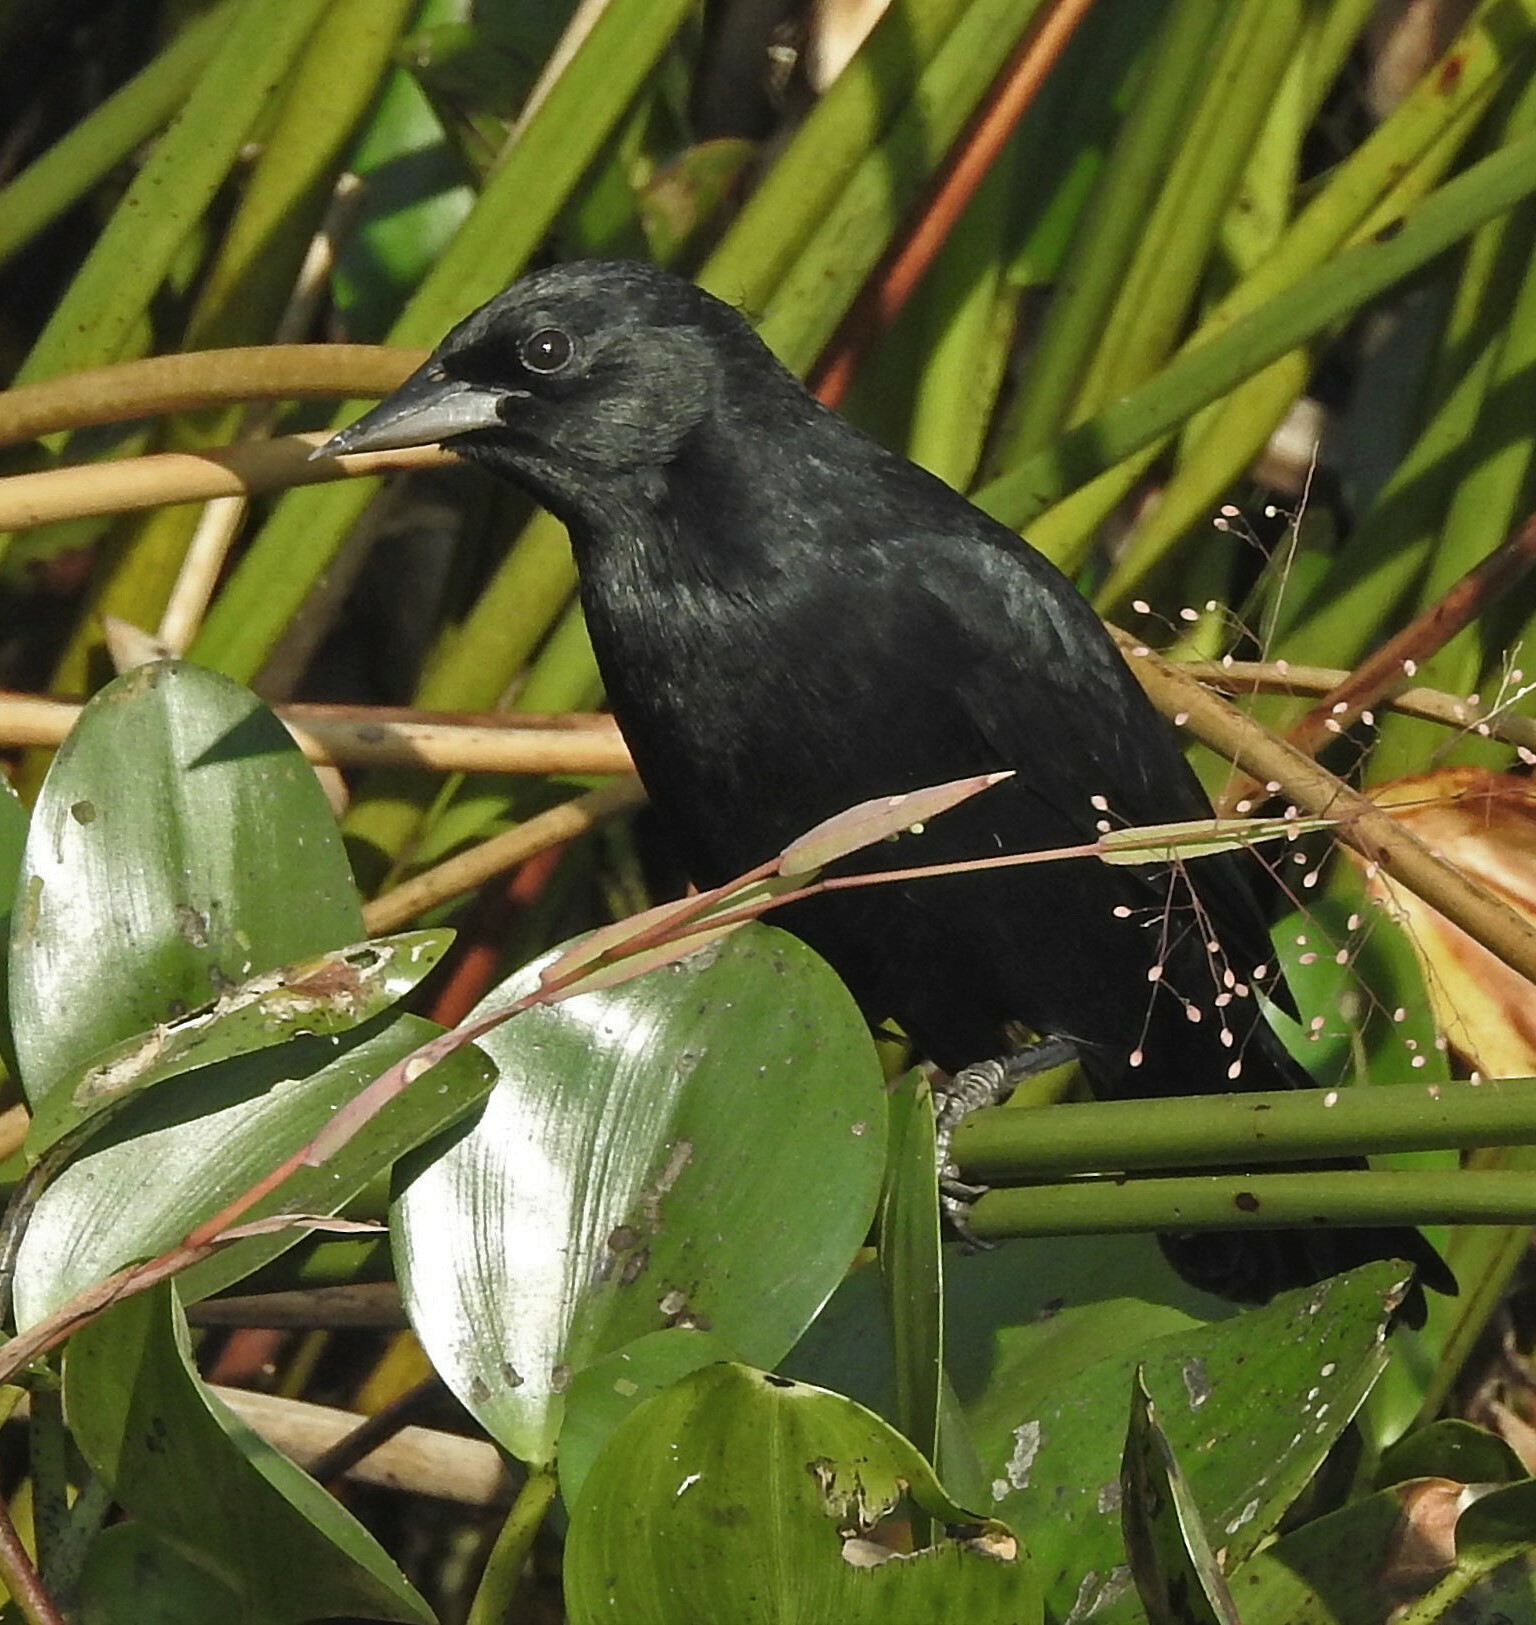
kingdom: Animalia
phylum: Chordata
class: Aves
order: Passeriformes
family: Icteridae
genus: Agelasticus
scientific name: Agelasticus cyanopus
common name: Unicolored blackbird
